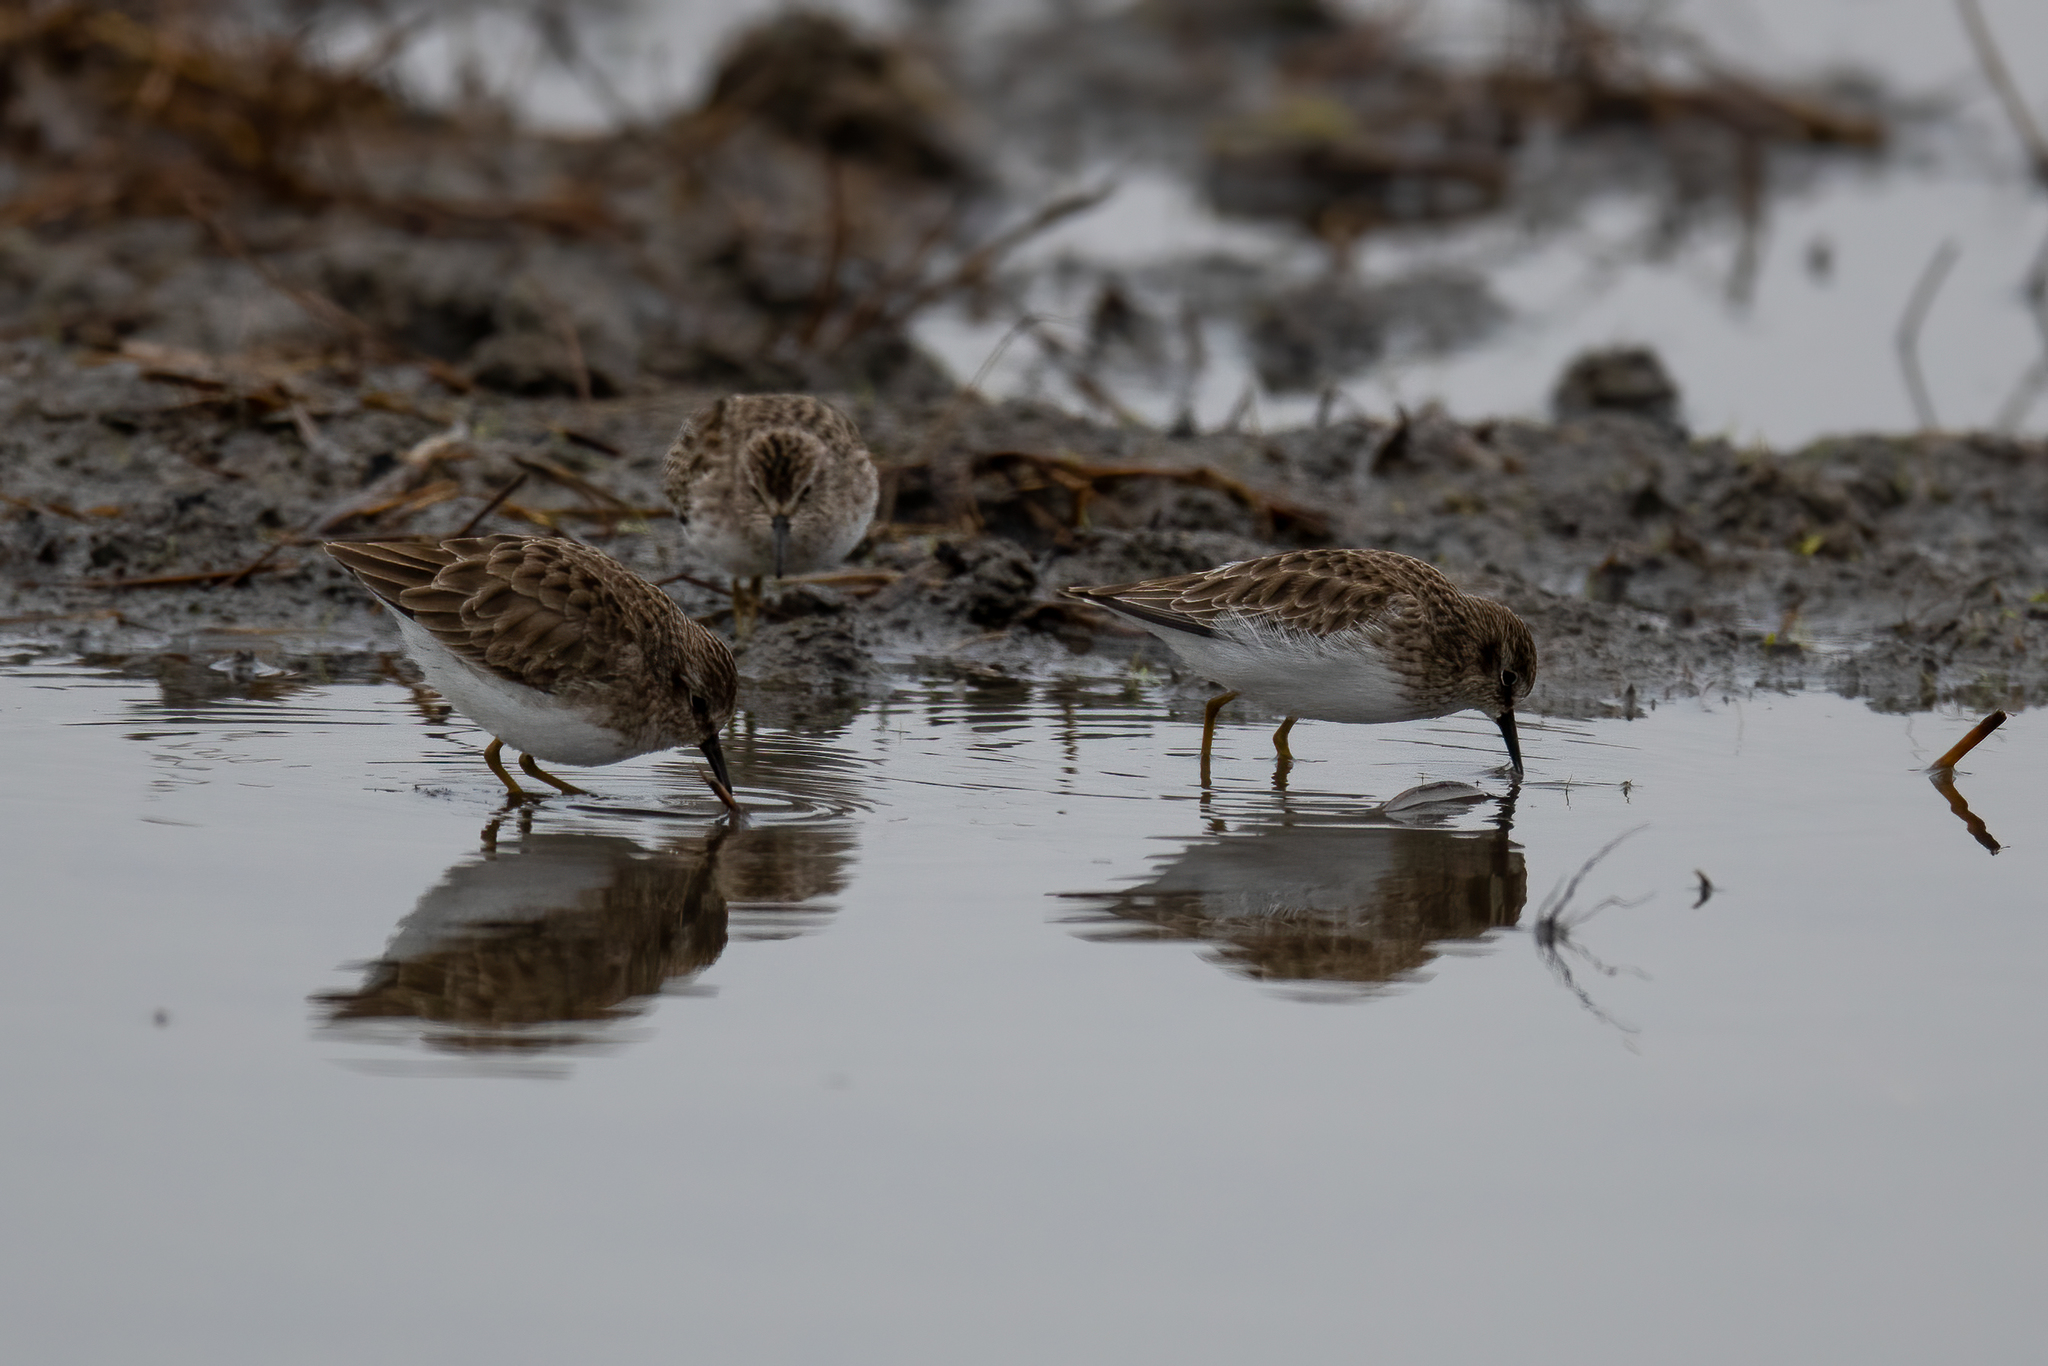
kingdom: Animalia
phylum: Chordata
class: Aves
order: Charadriiformes
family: Scolopacidae
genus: Calidris
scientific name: Calidris minutilla
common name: Least sandpiper
